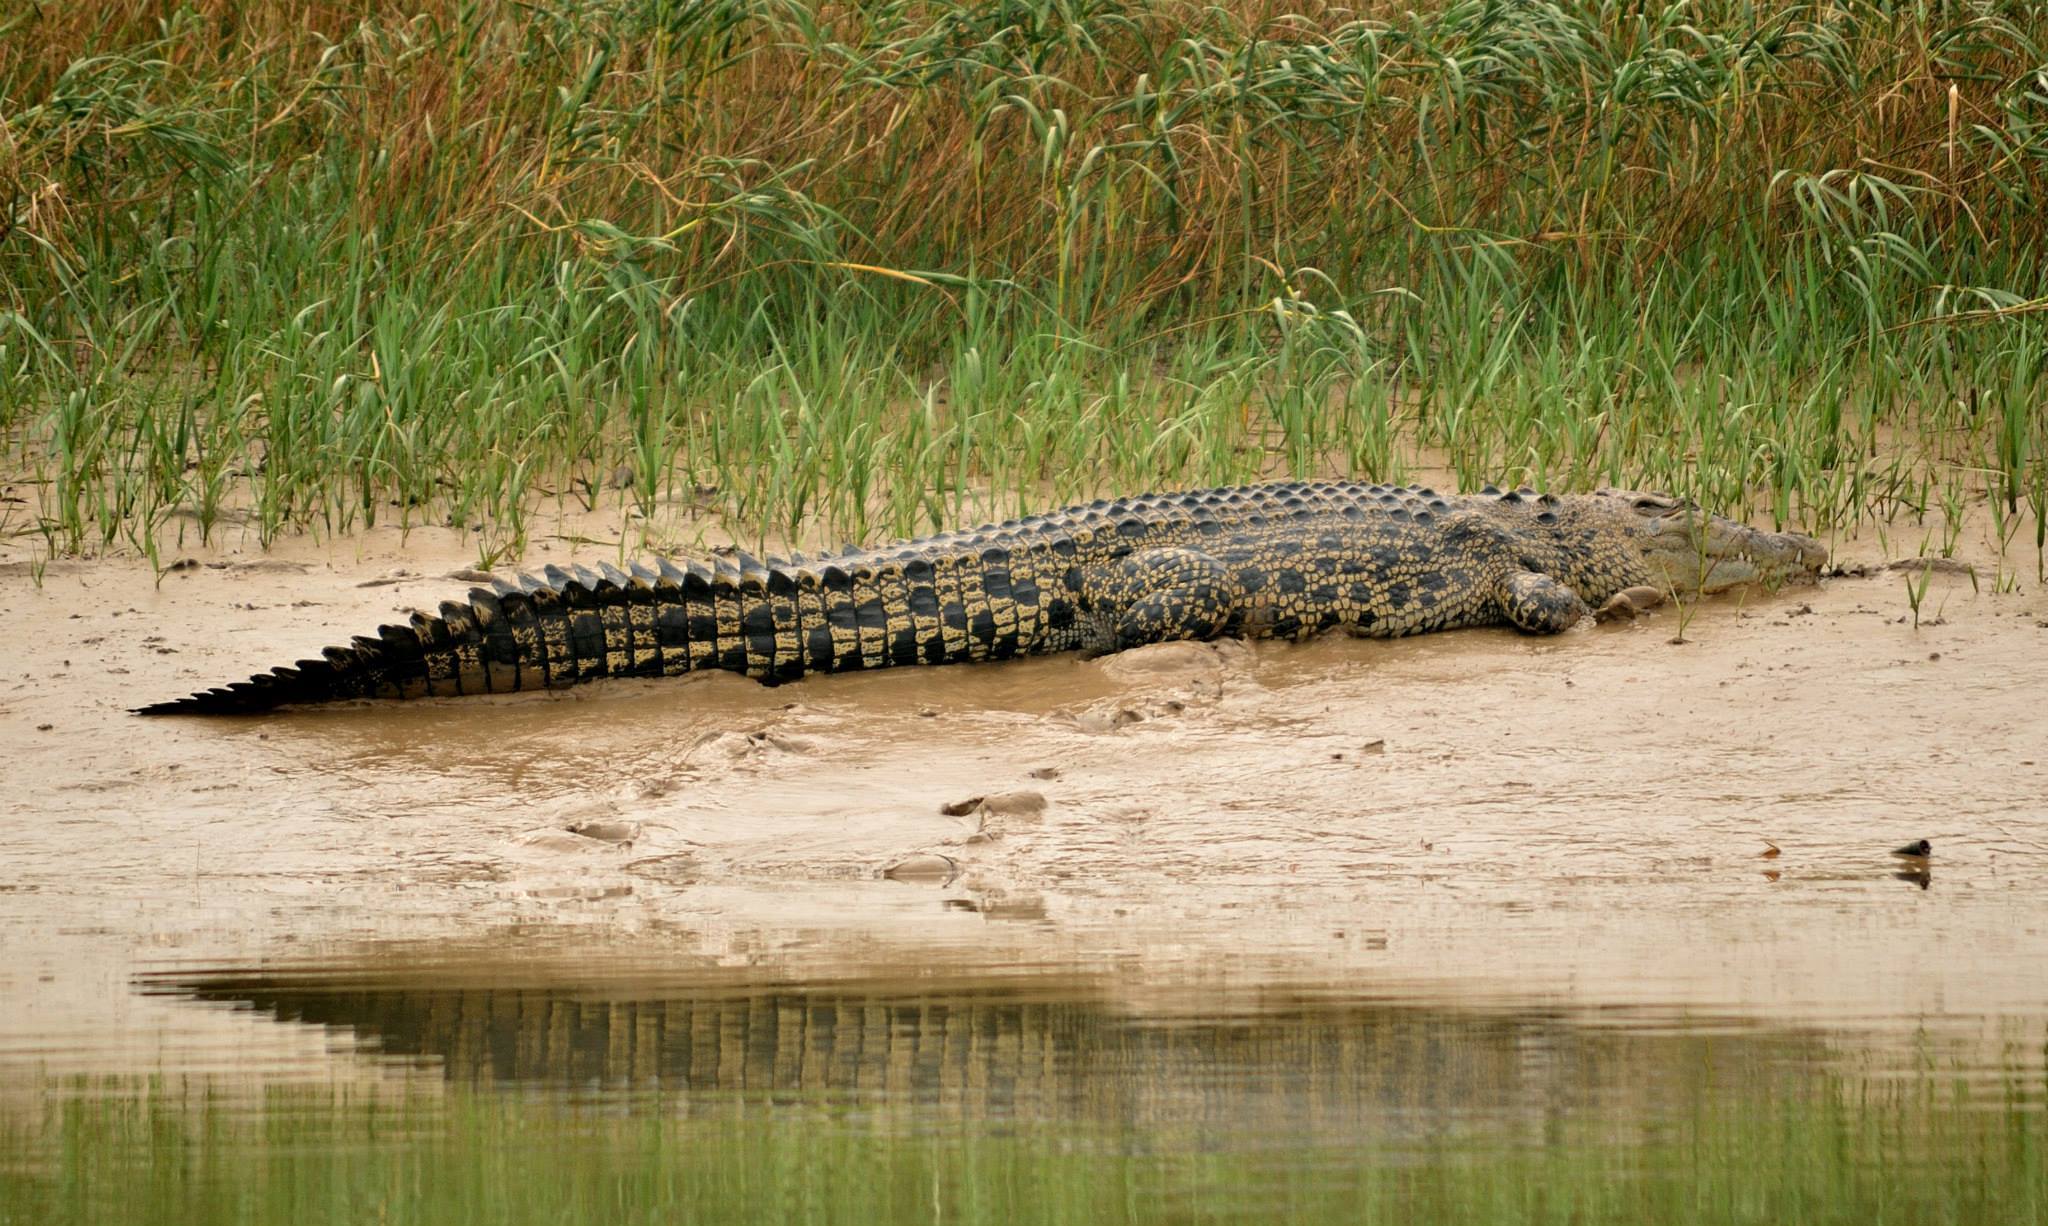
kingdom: Animalia
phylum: Chordata
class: Crocodylia
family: Crocodylidae
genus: Crocodylus
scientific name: Crocodylus porosus
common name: Saltwater crocodile
